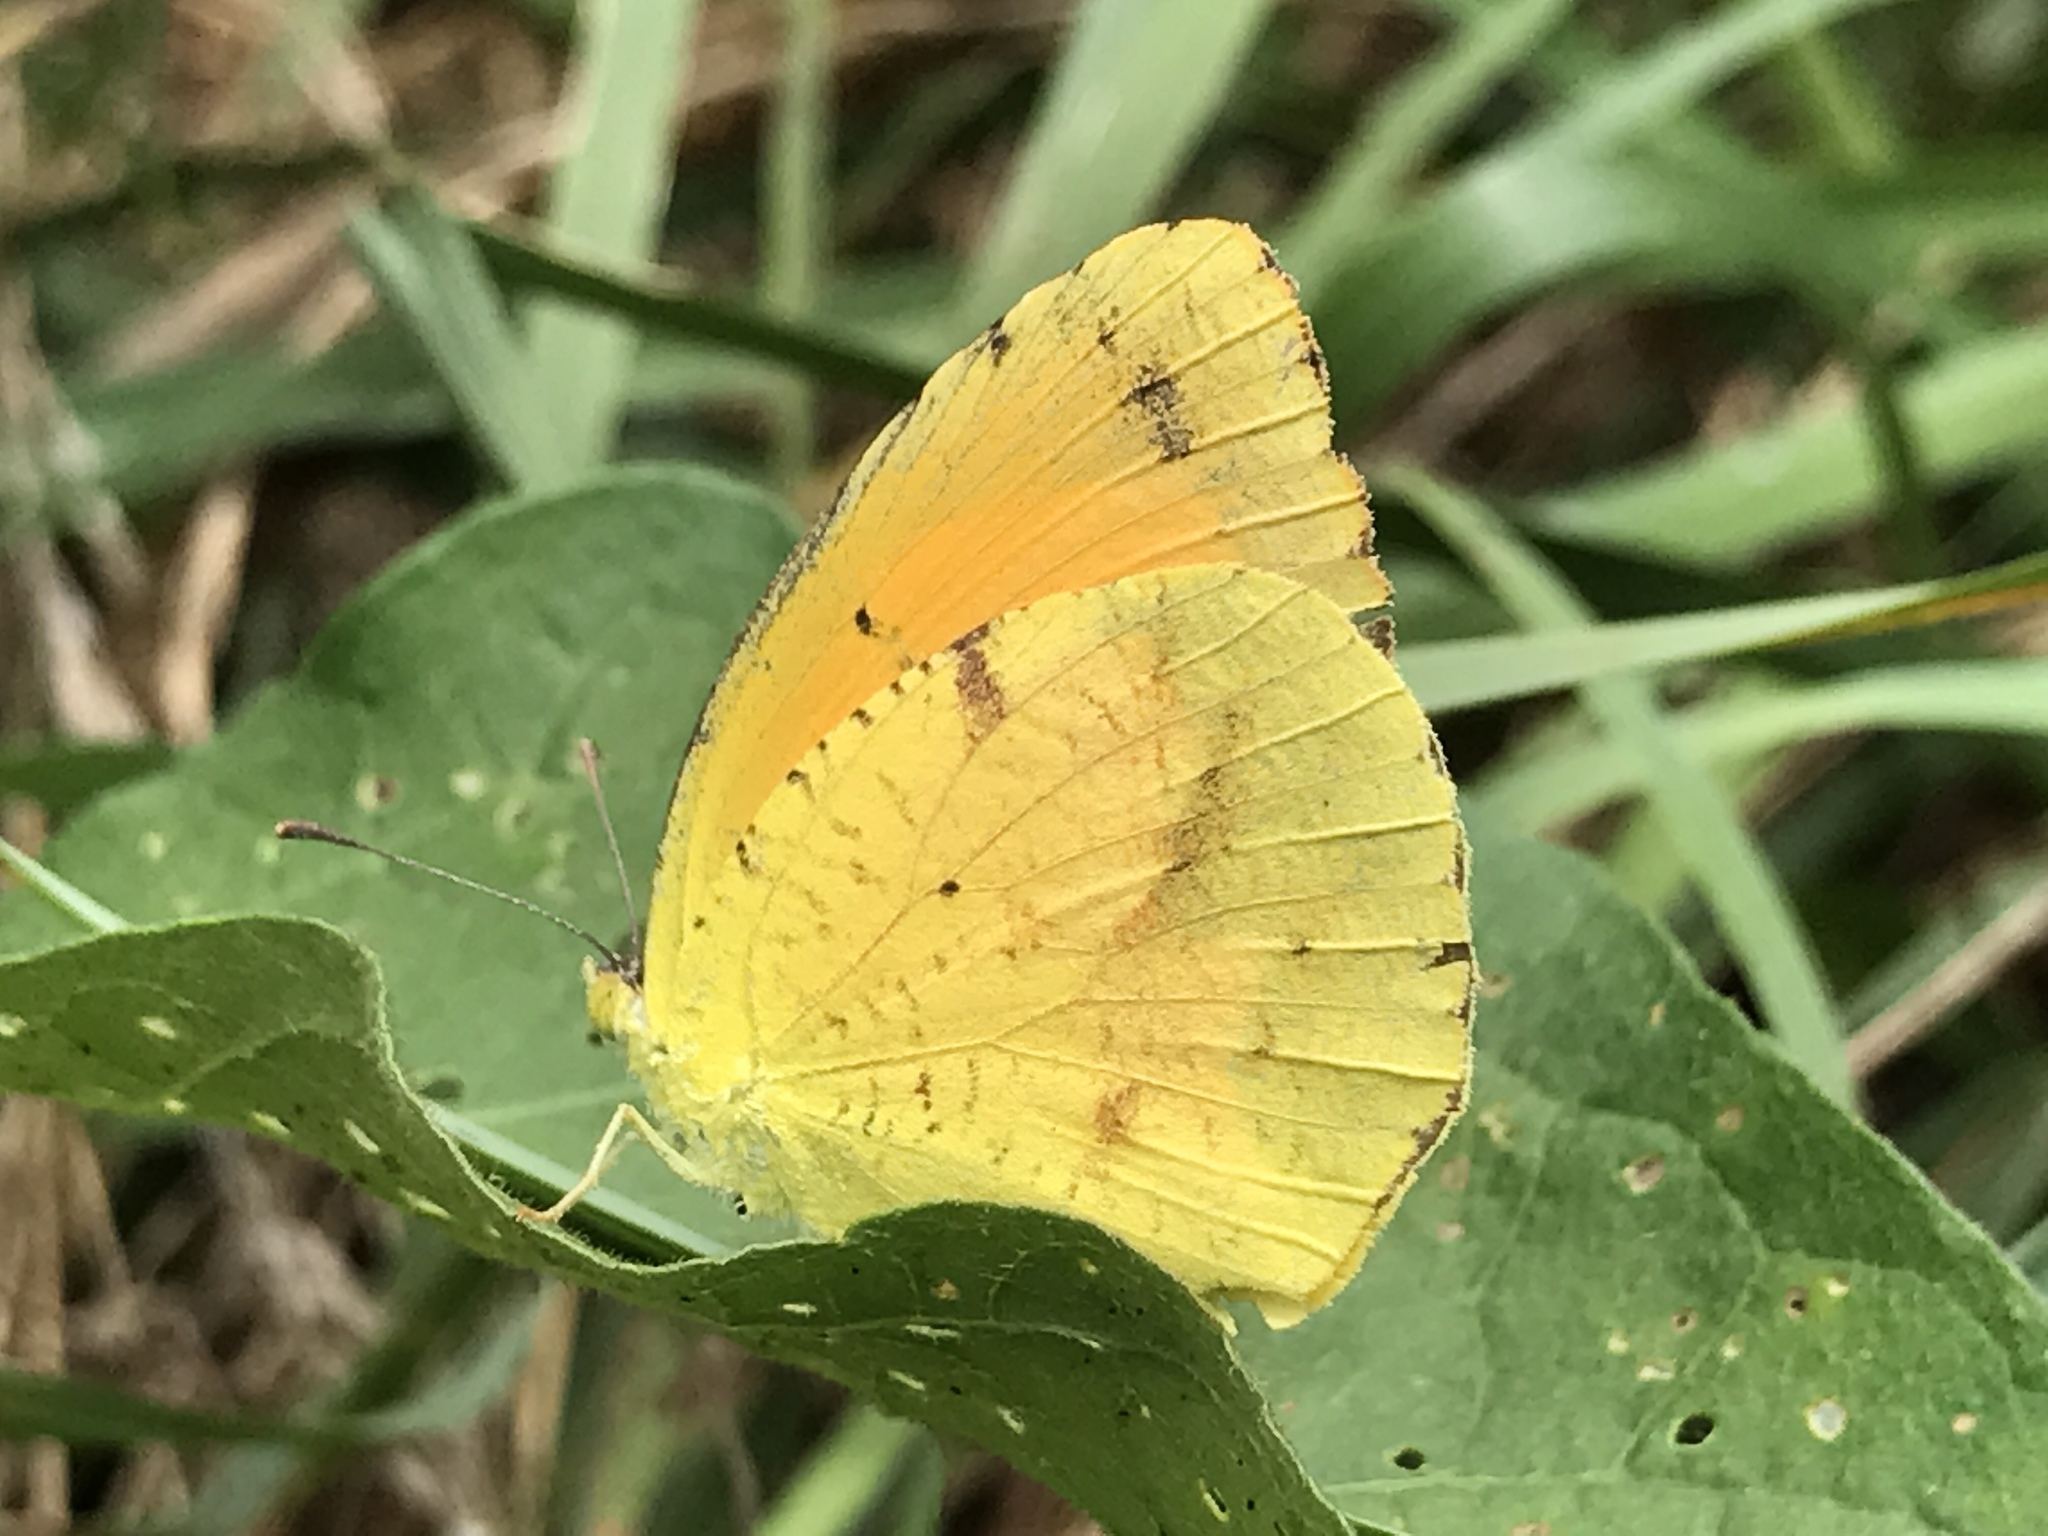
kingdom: Animalia
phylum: Arthropoda
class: Insecta
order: Lepidoptera
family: Pieridae
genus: Abaeis
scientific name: Abaeis nicippe
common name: Sleepy orange
